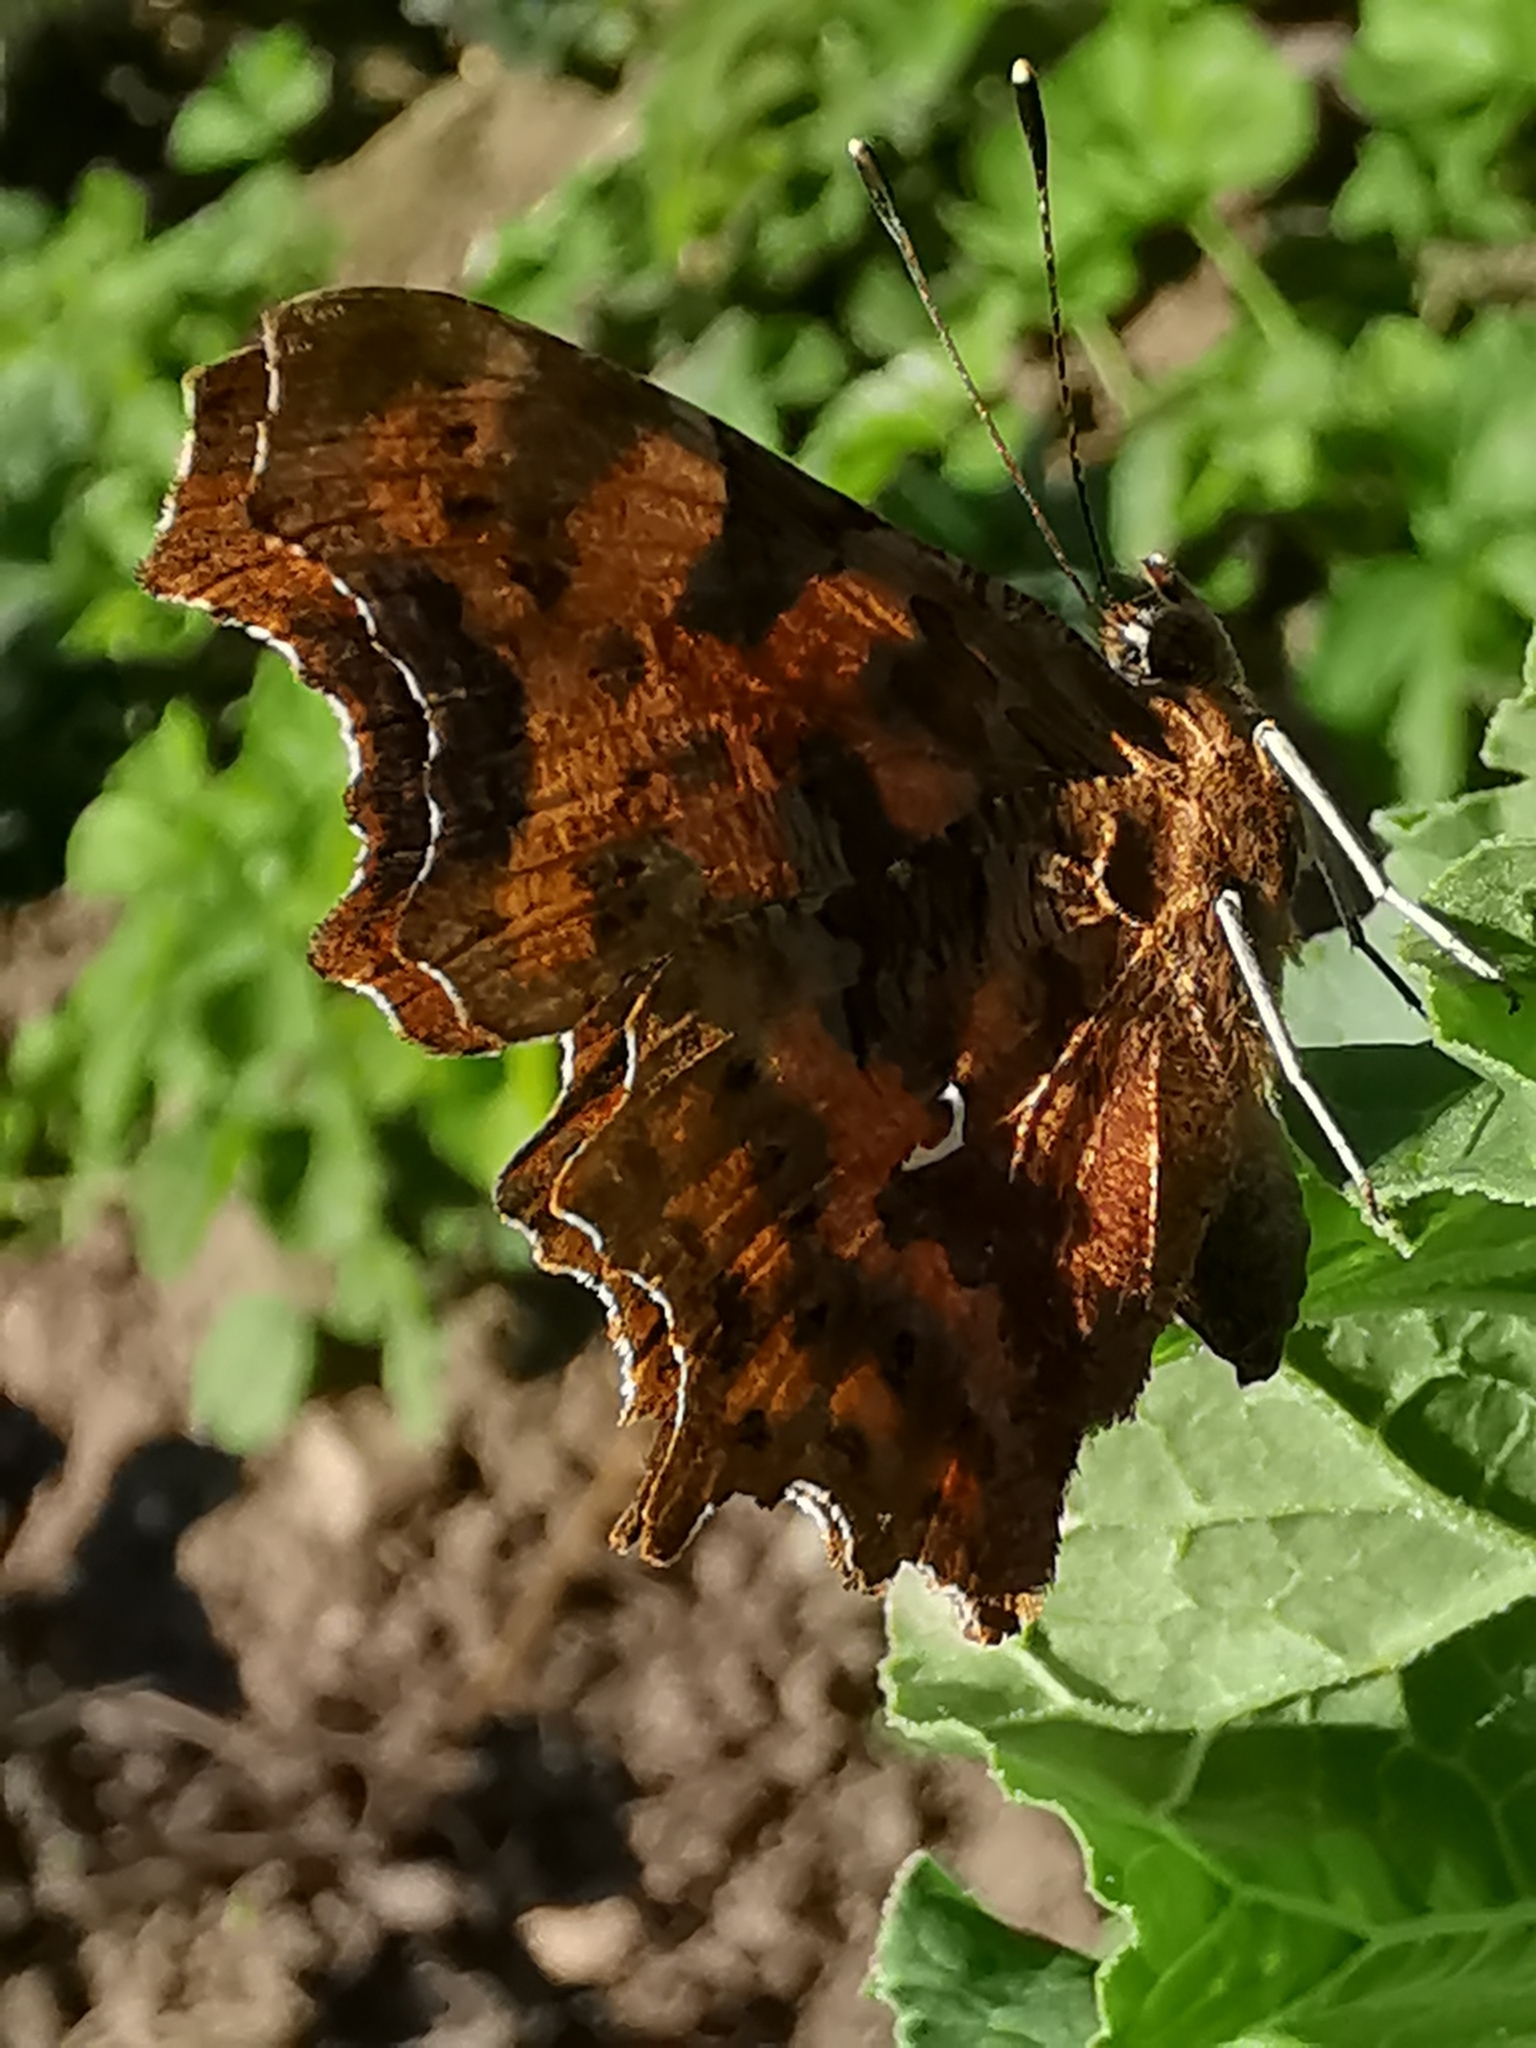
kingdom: Animalia
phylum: Arthropoda
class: Insecta
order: Lepidoptera
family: Nymphalidae
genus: Polygonia
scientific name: Polygonia c-album
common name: Comma
